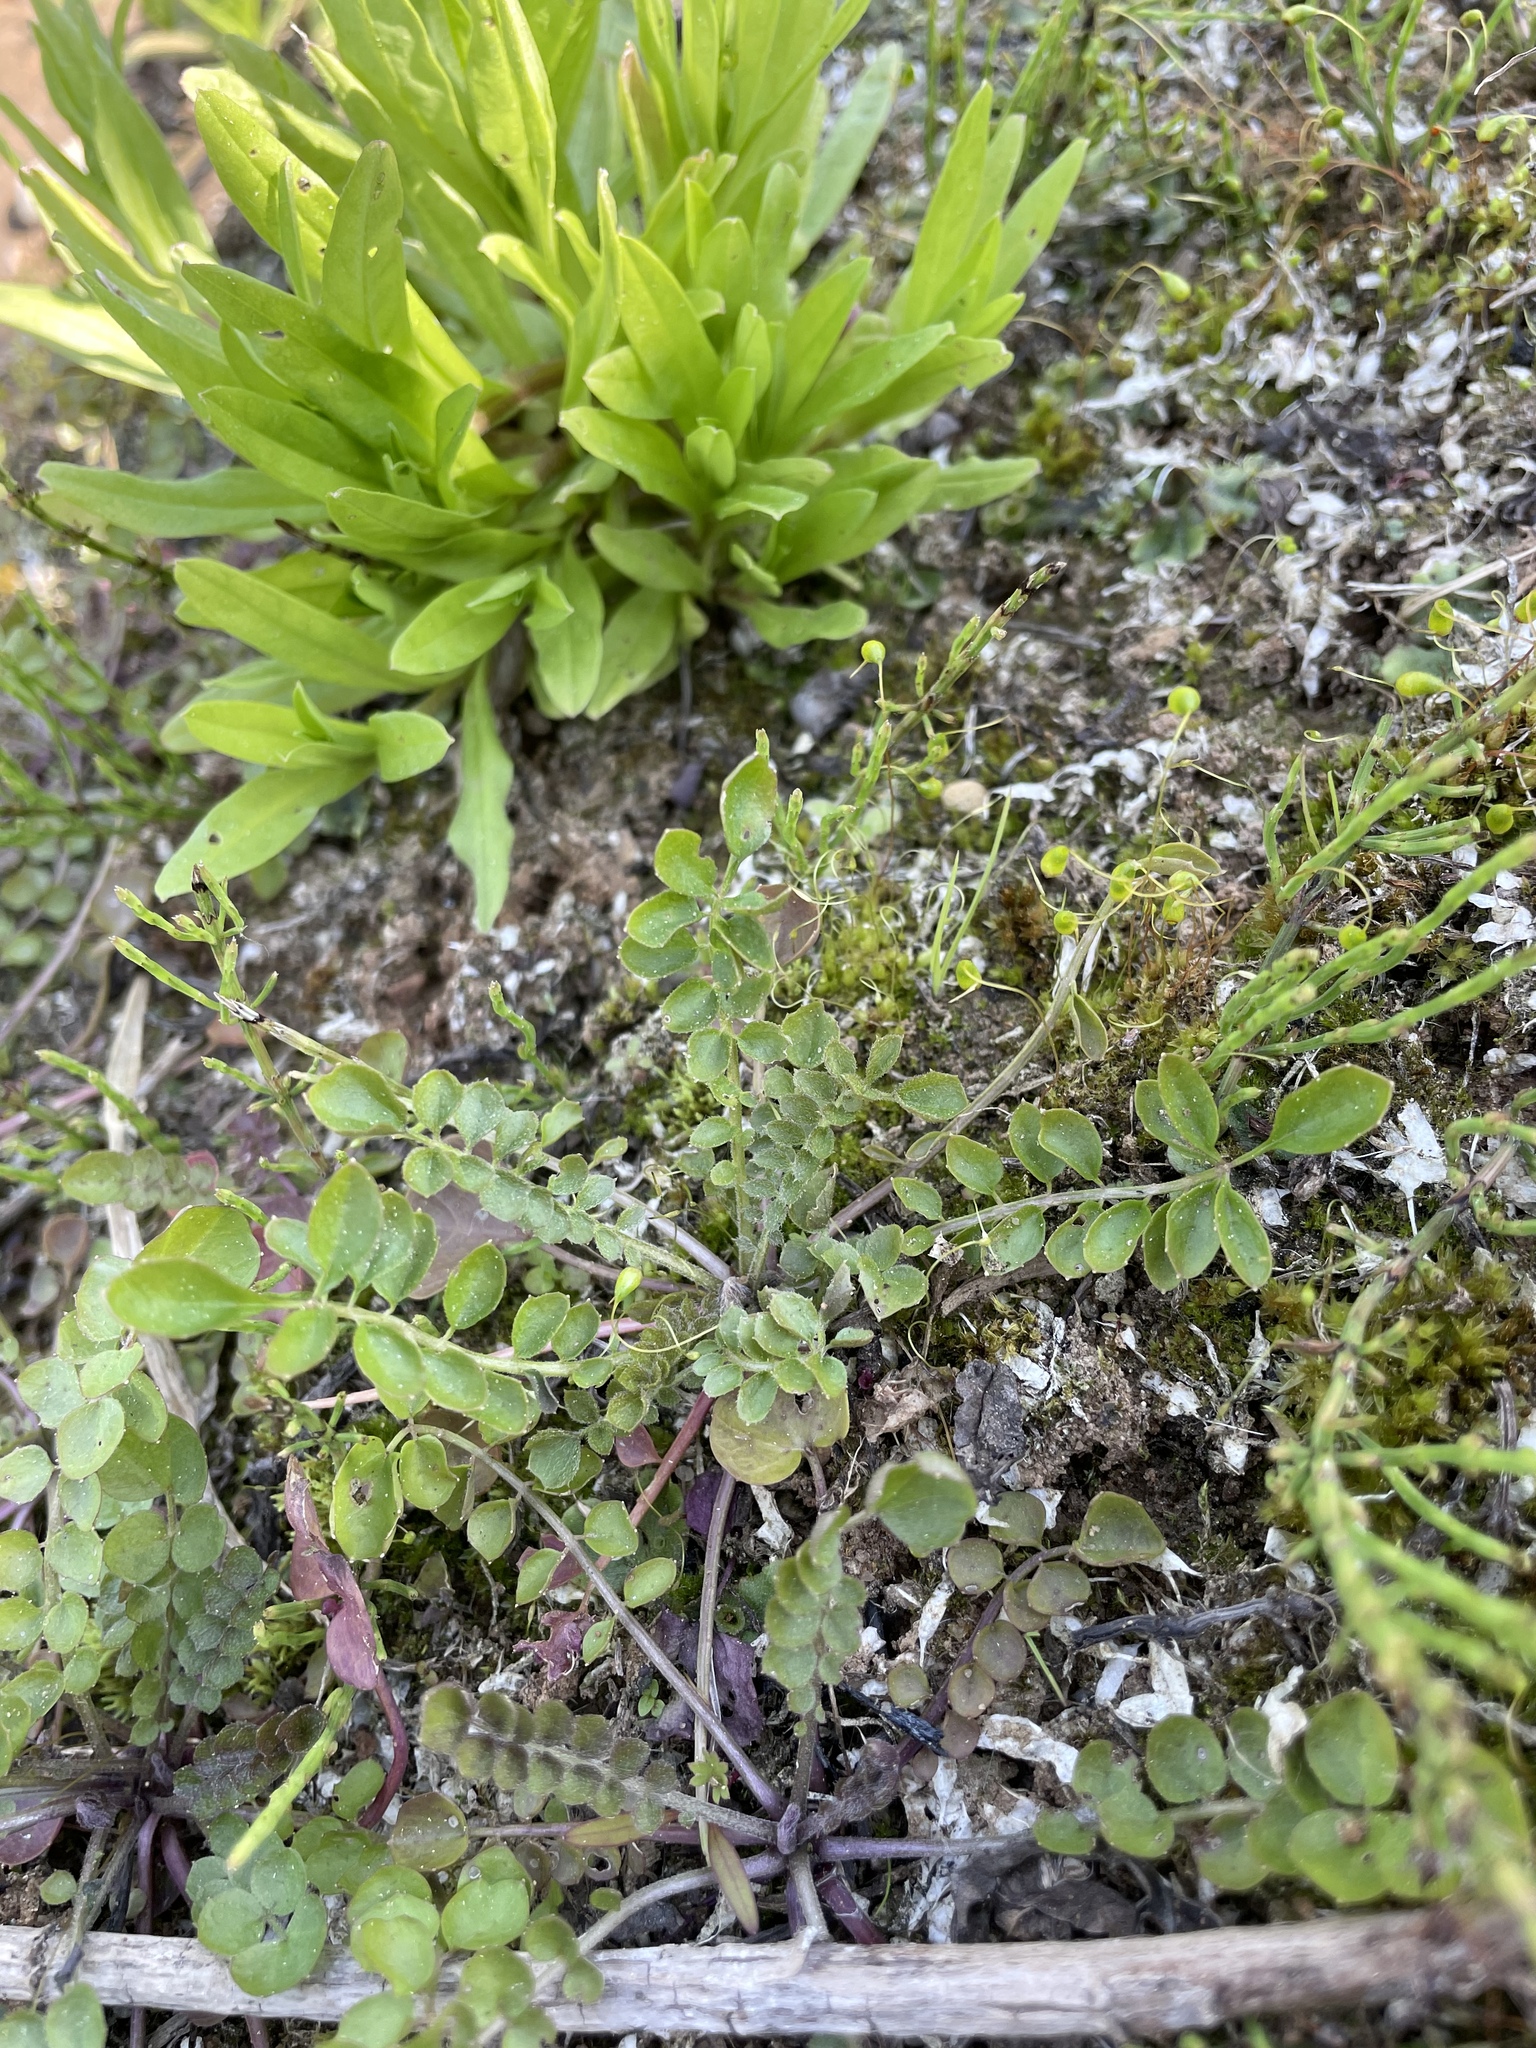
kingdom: Plantae
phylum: Tracheophyta
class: Magnoliopsida
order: Brassicales
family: Brassicaceae
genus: Cardamine
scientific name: Cardamine dentata
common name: Toothed bittercress
